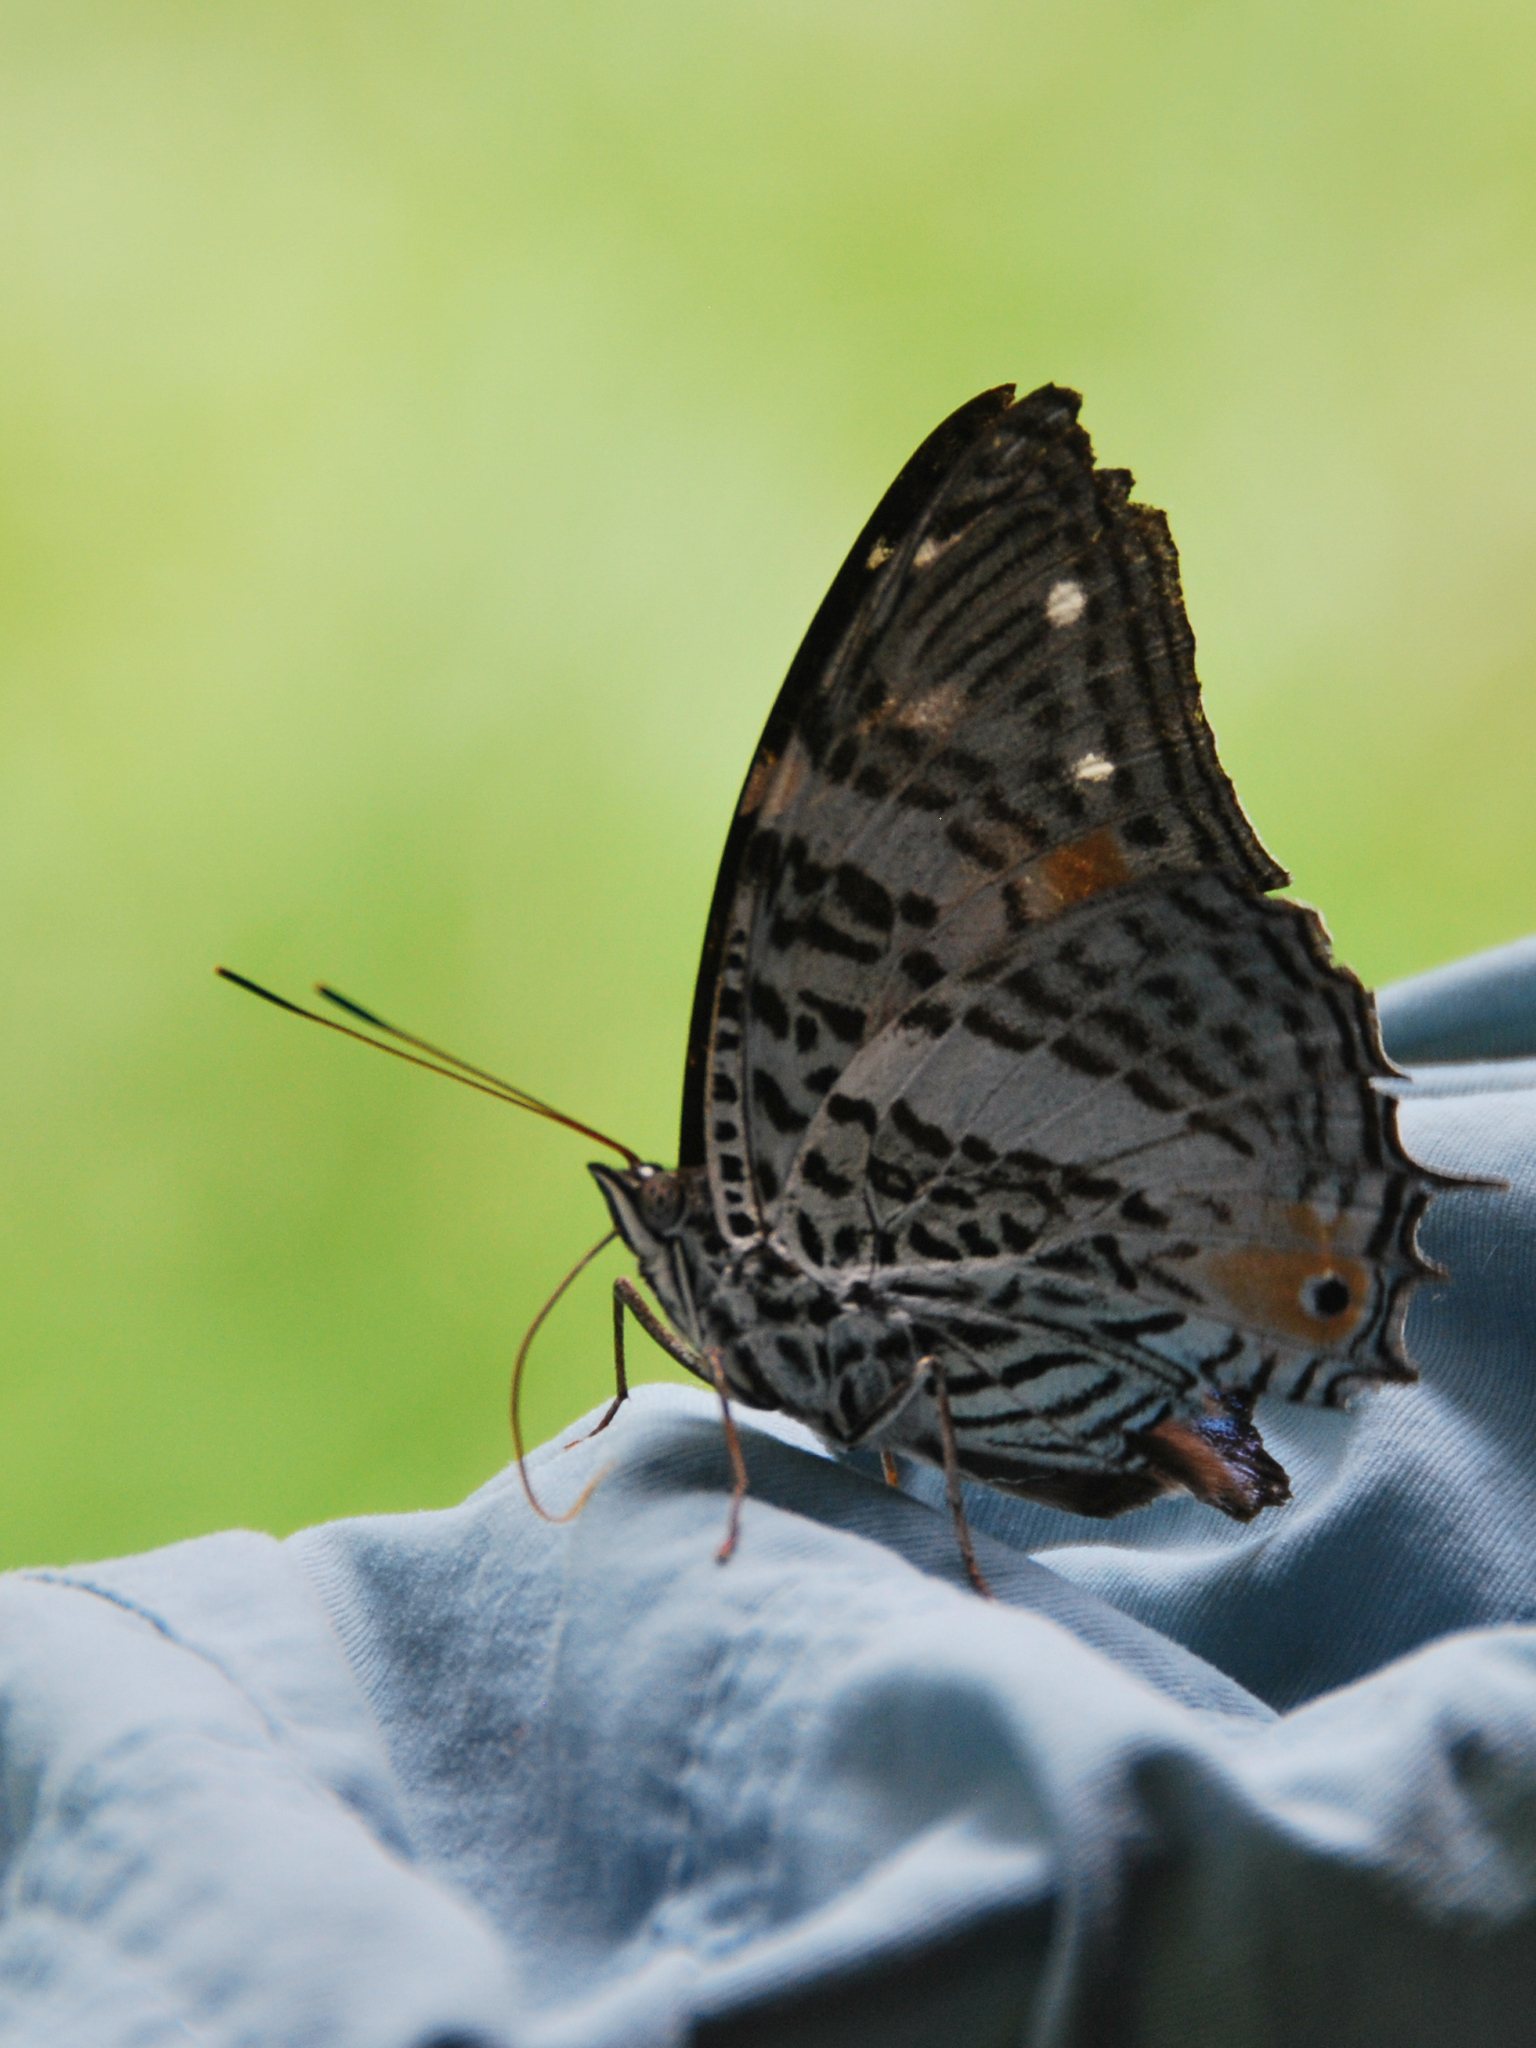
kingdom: Animalia
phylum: Arthropoda
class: Insecta
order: Lepidoptera
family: Nymphalidae
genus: Baeotus
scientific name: Baeotus beotus
